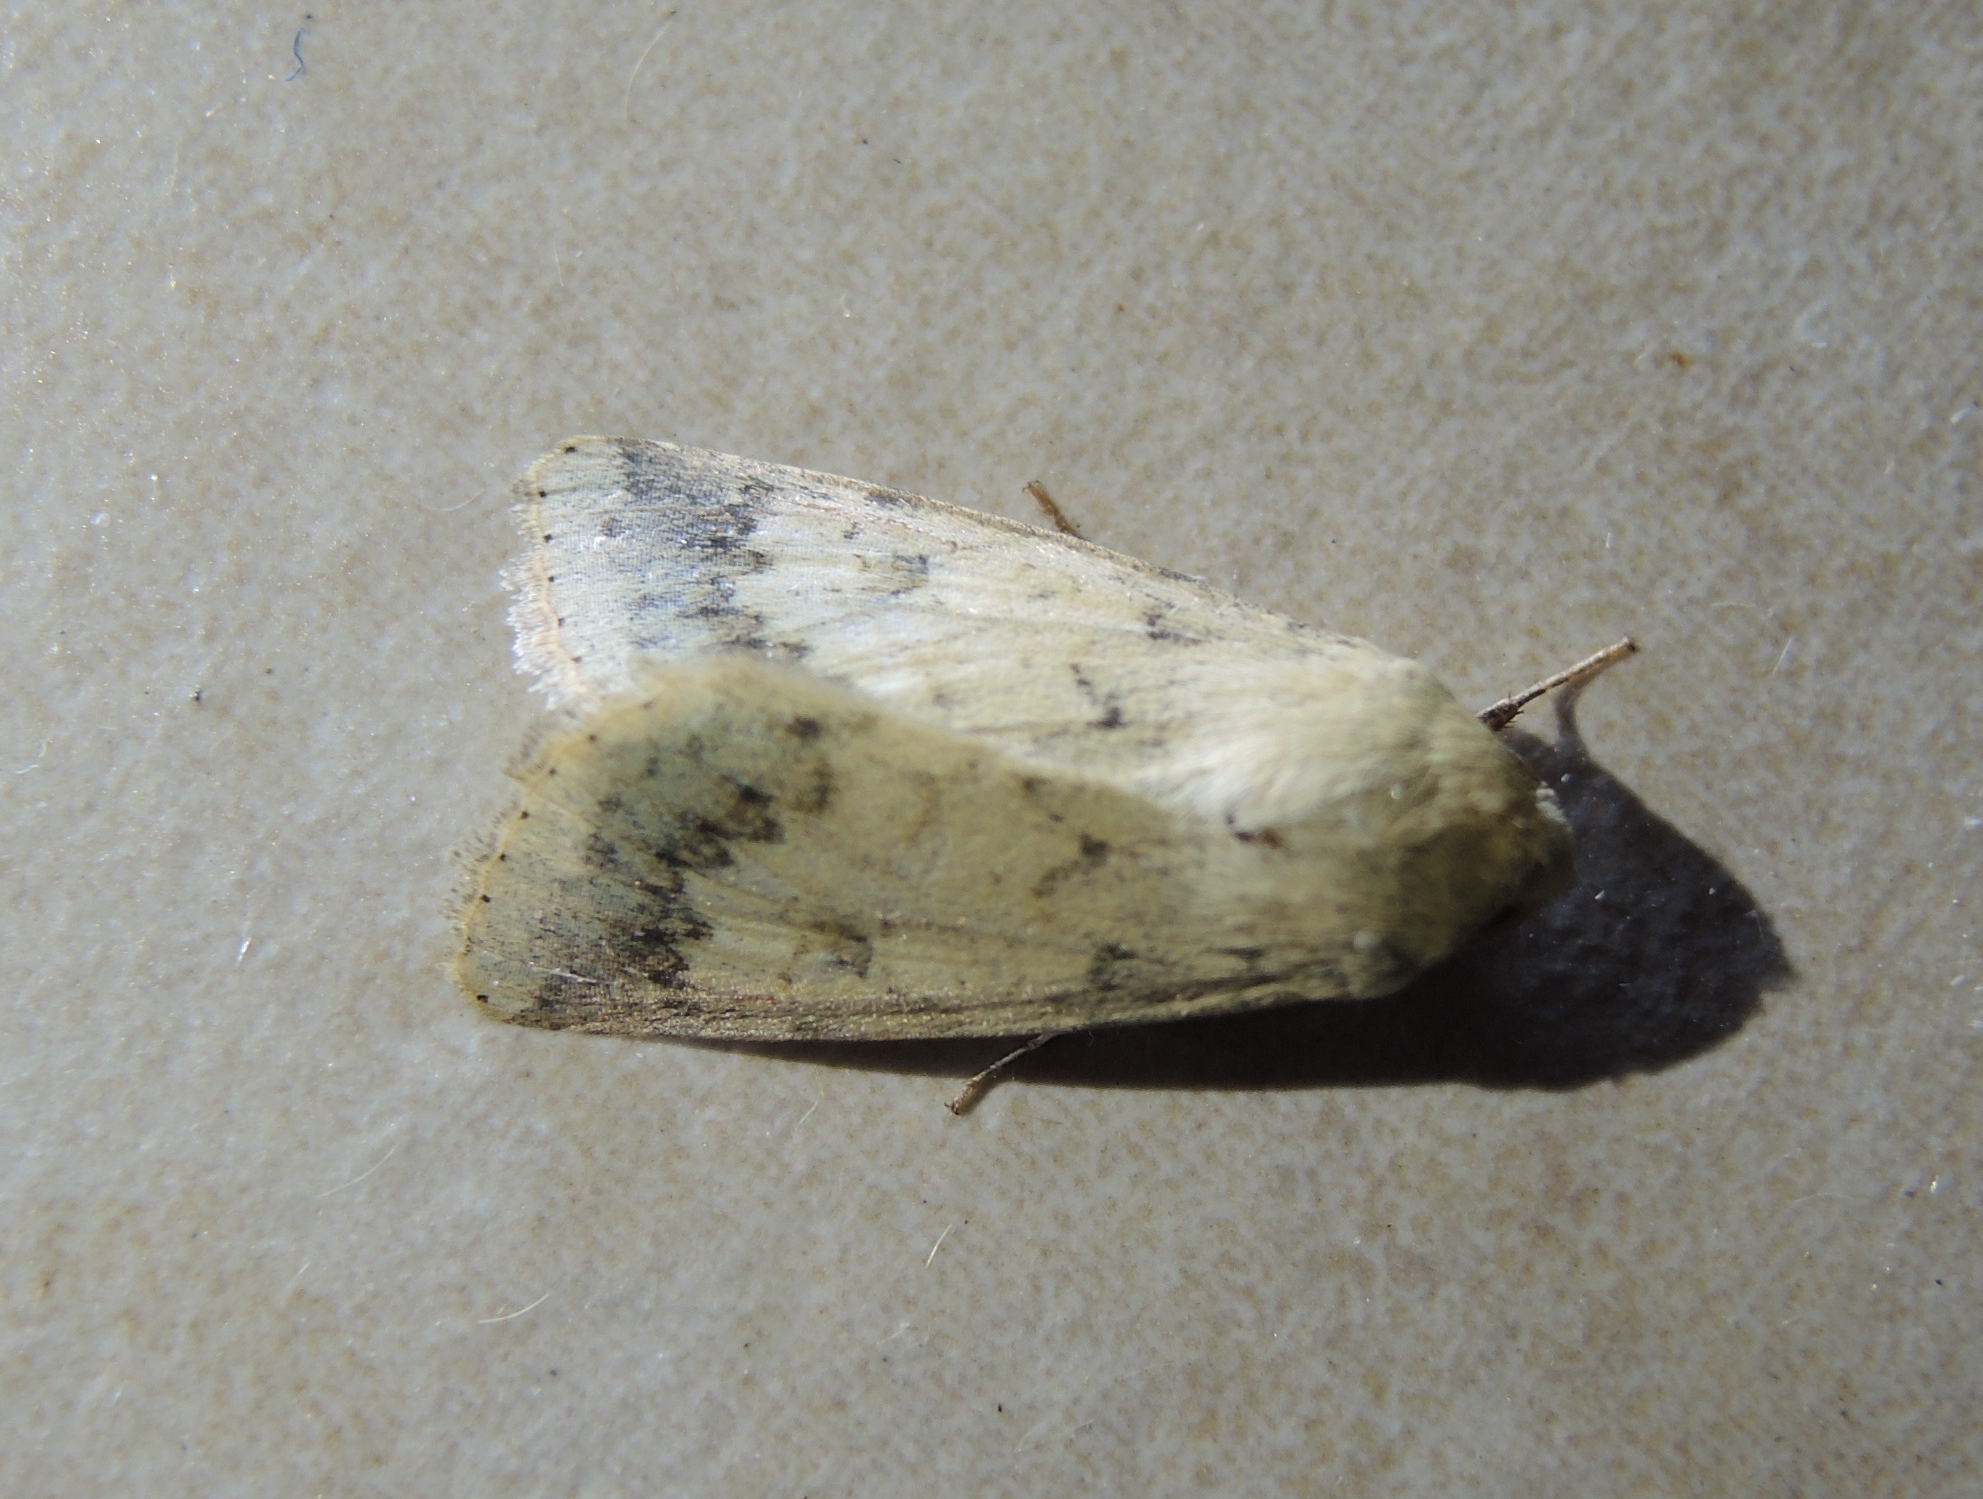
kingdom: Animalia
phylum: Arthropoda
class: Insecta
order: Lepidoptera
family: Noctuidae
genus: Helicoverpa
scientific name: Helicoverpa armigera
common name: Cotton bollworm
